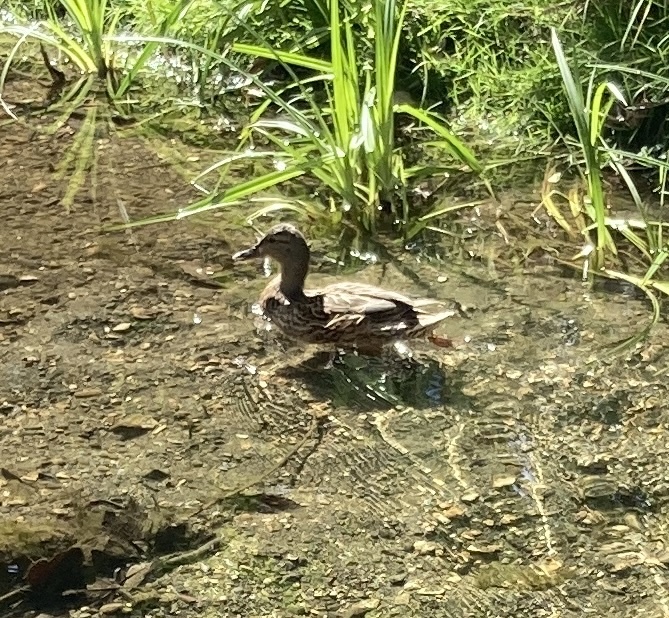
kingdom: Animalia
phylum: Chordata
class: Aves
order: Anseriformes
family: Anatidae
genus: Anas
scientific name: Anas platyrhynchos
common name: Mallard
